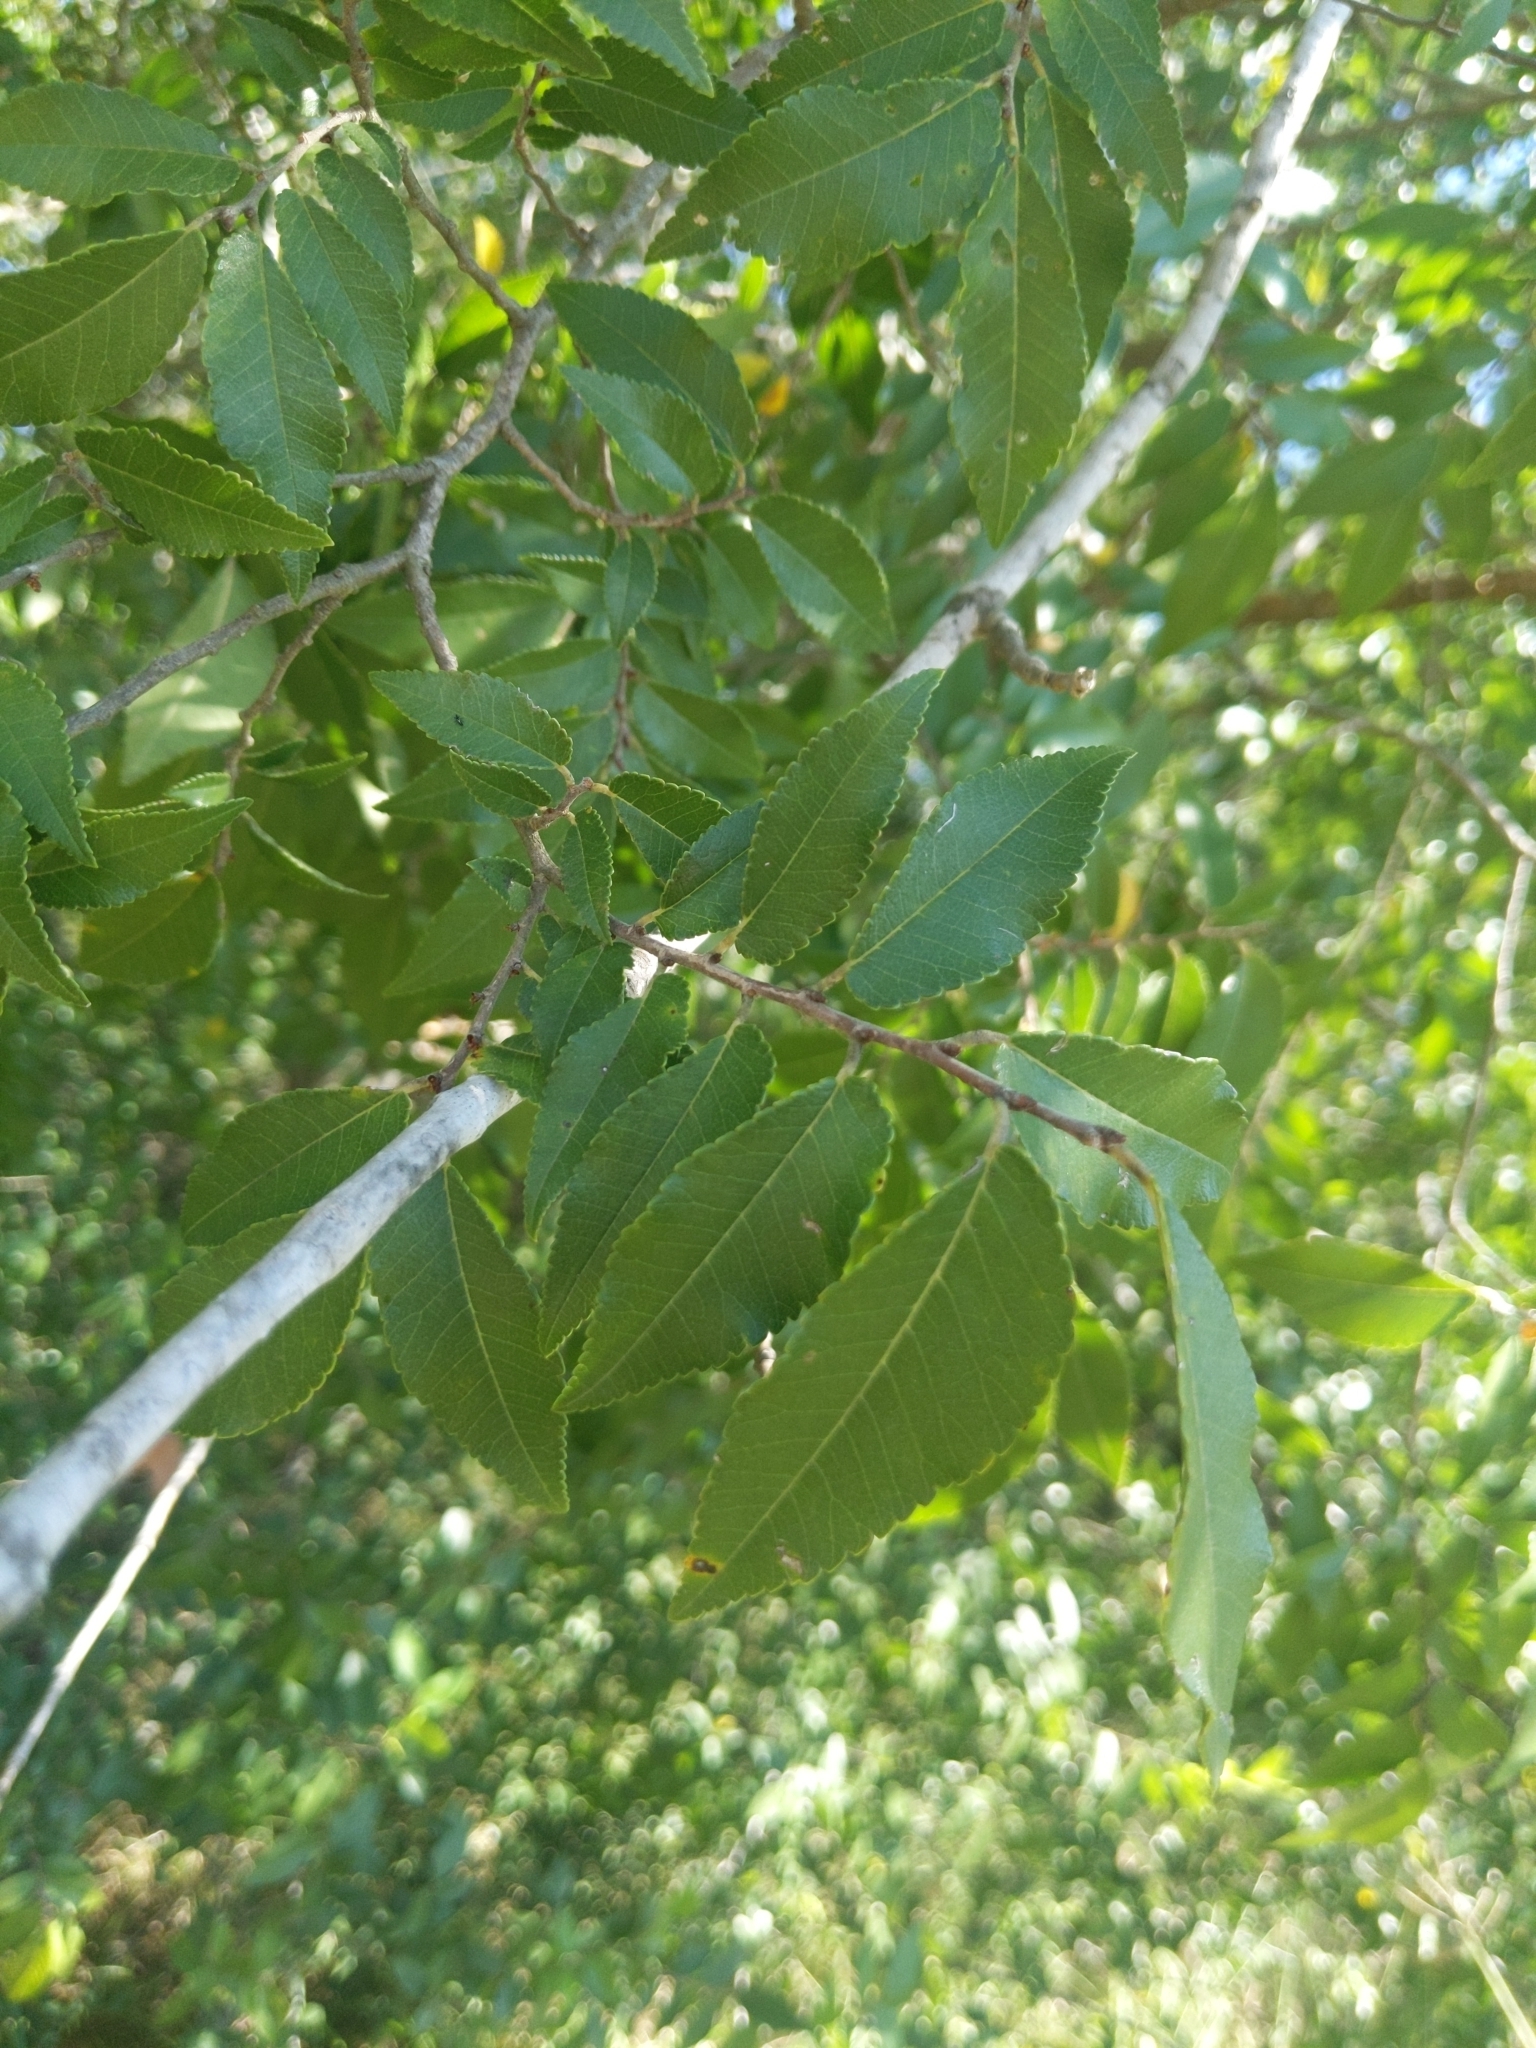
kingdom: Plantae
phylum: Tracheophyta
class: Magnoliopsida
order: Rosales
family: Ulmaceae
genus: Ulmus
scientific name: Ulmus parvifolia
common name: Chinese elm
